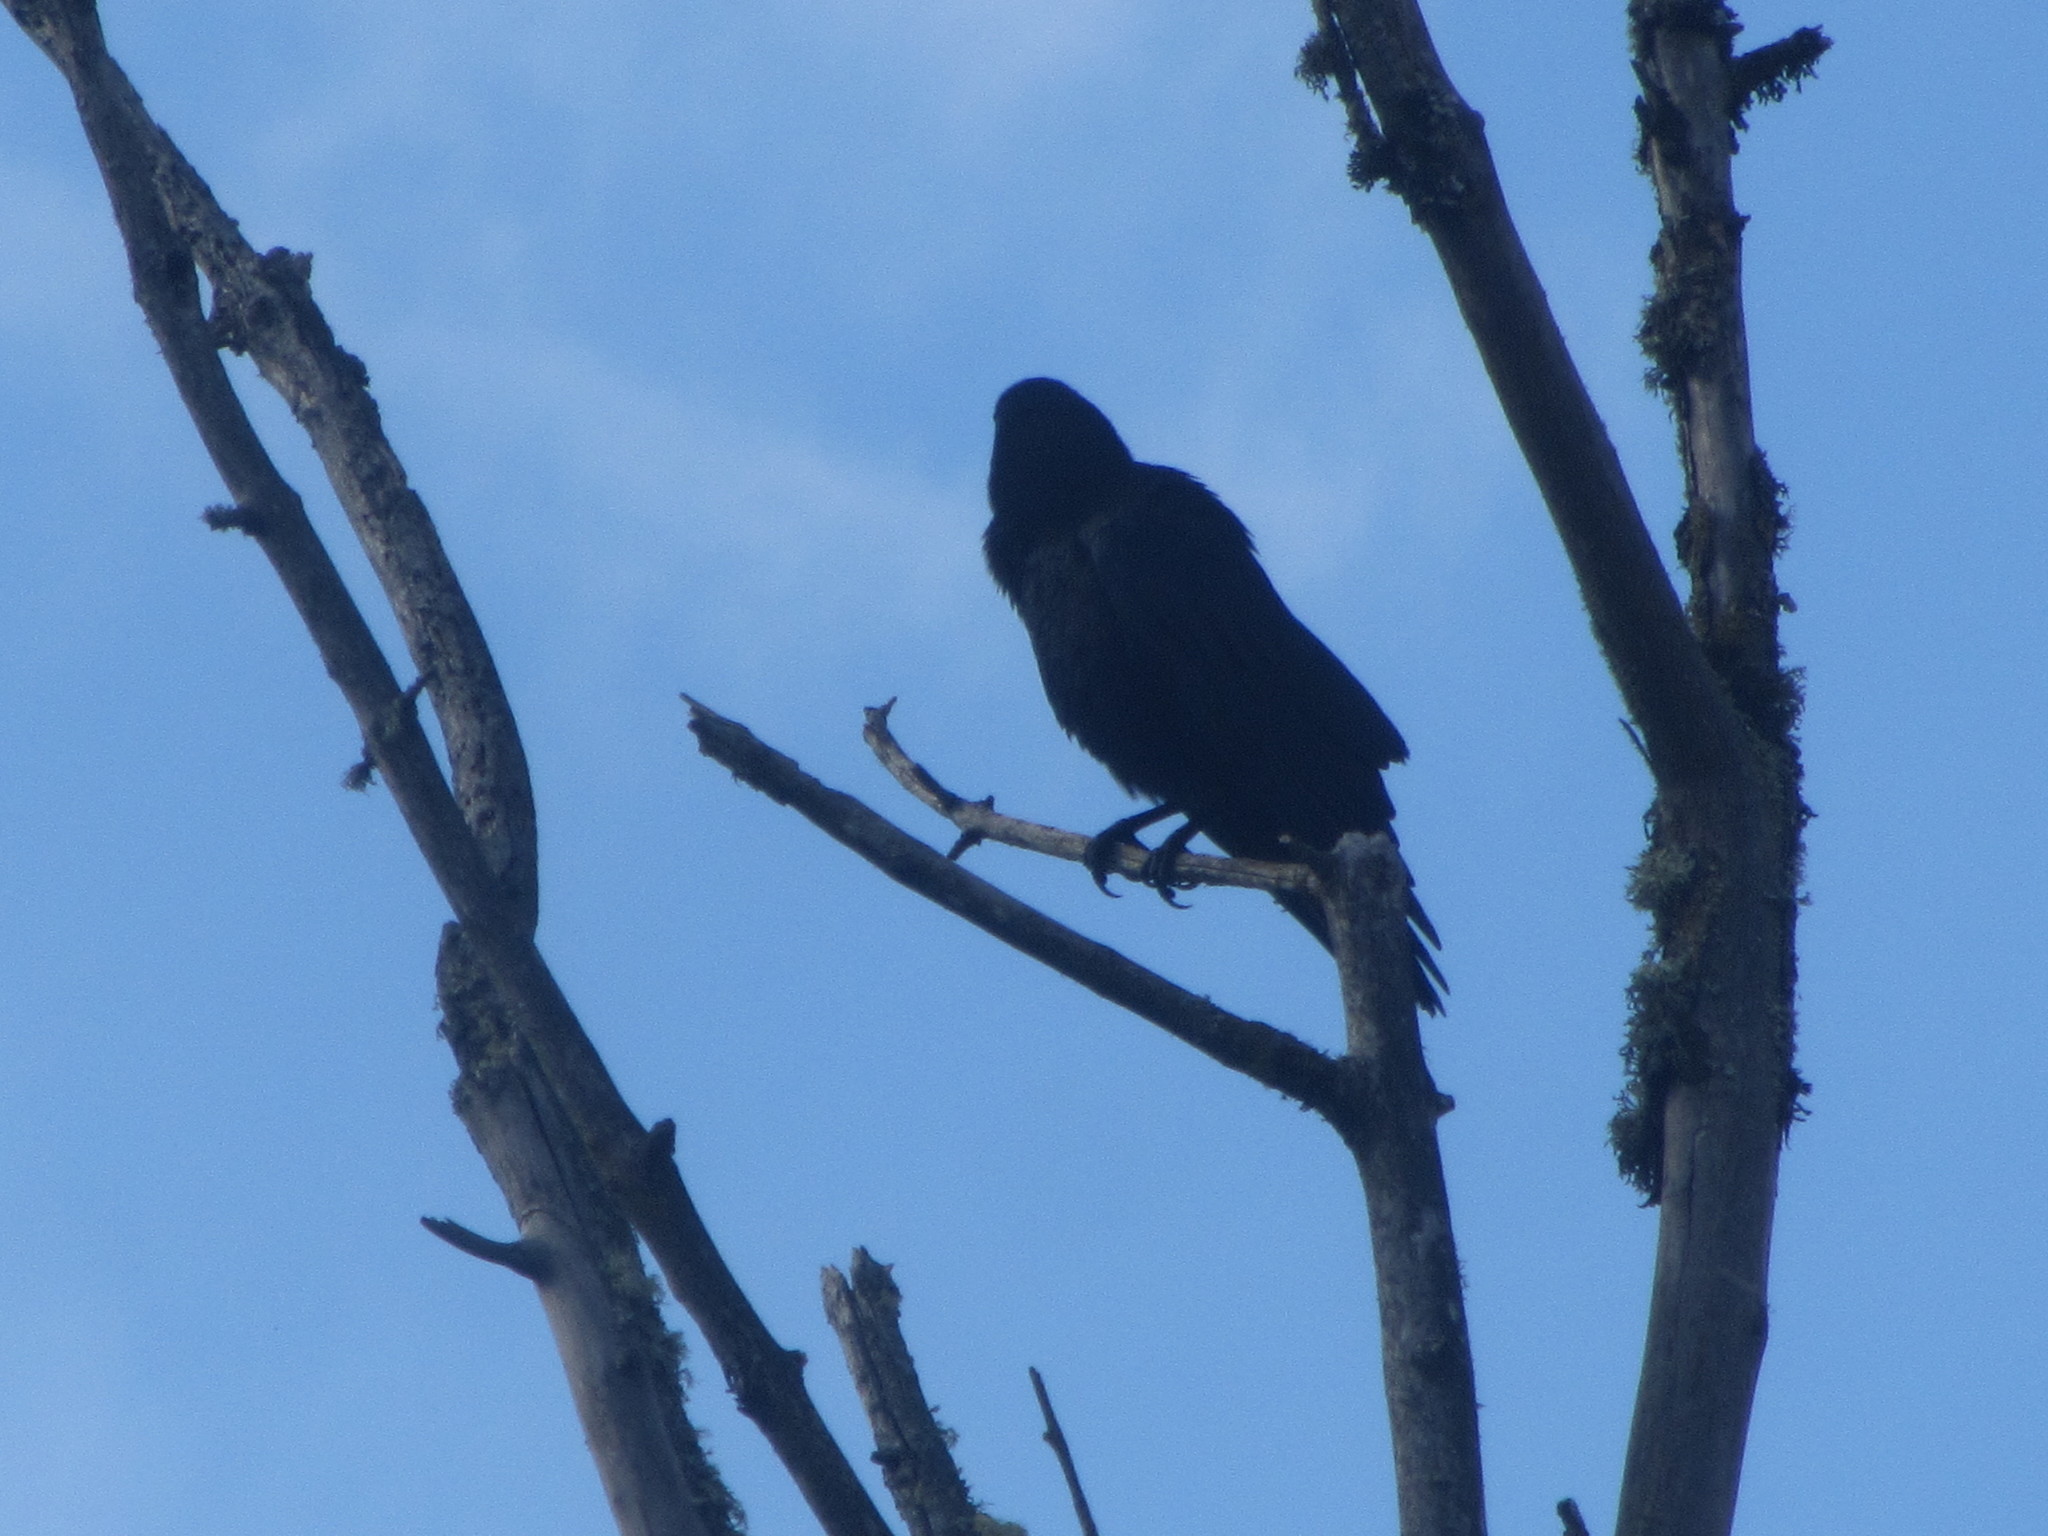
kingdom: Animalia
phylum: Chordata
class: Aves
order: Passeriformes
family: Corvidae
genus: Corvus
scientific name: Corvus brachyrhynchos
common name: American crow
